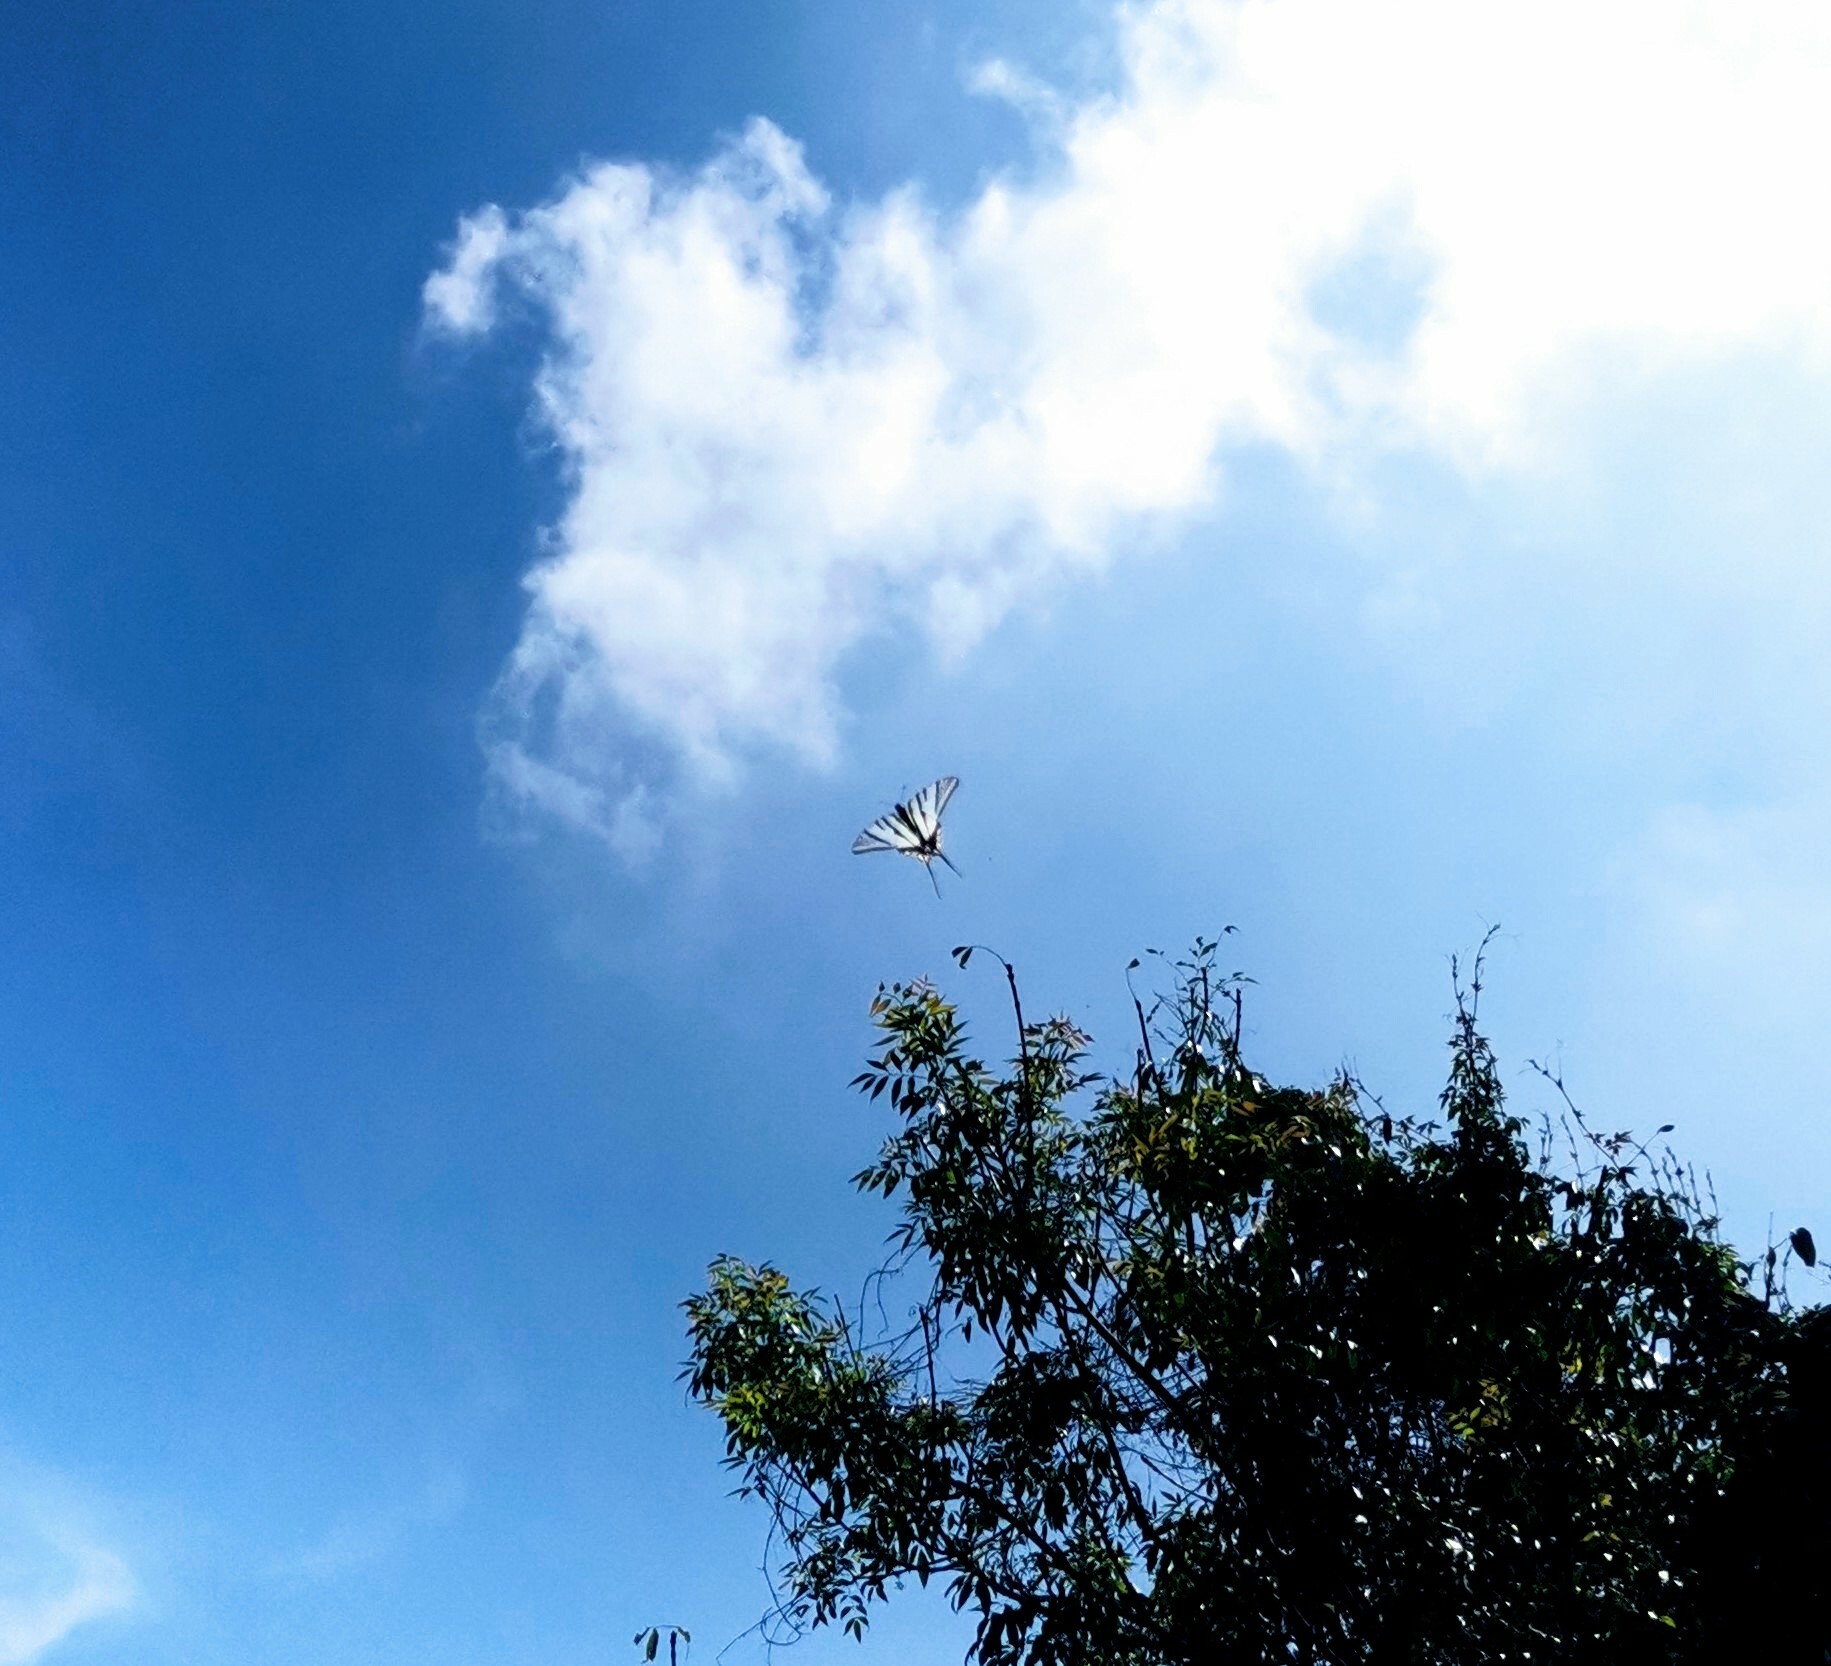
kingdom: Animalia
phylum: Arthropoda
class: Insecta
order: Lepidoptera
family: Papilionidae
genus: Protographium
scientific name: Protographium epidaus
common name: Mexican kite swallowtail
